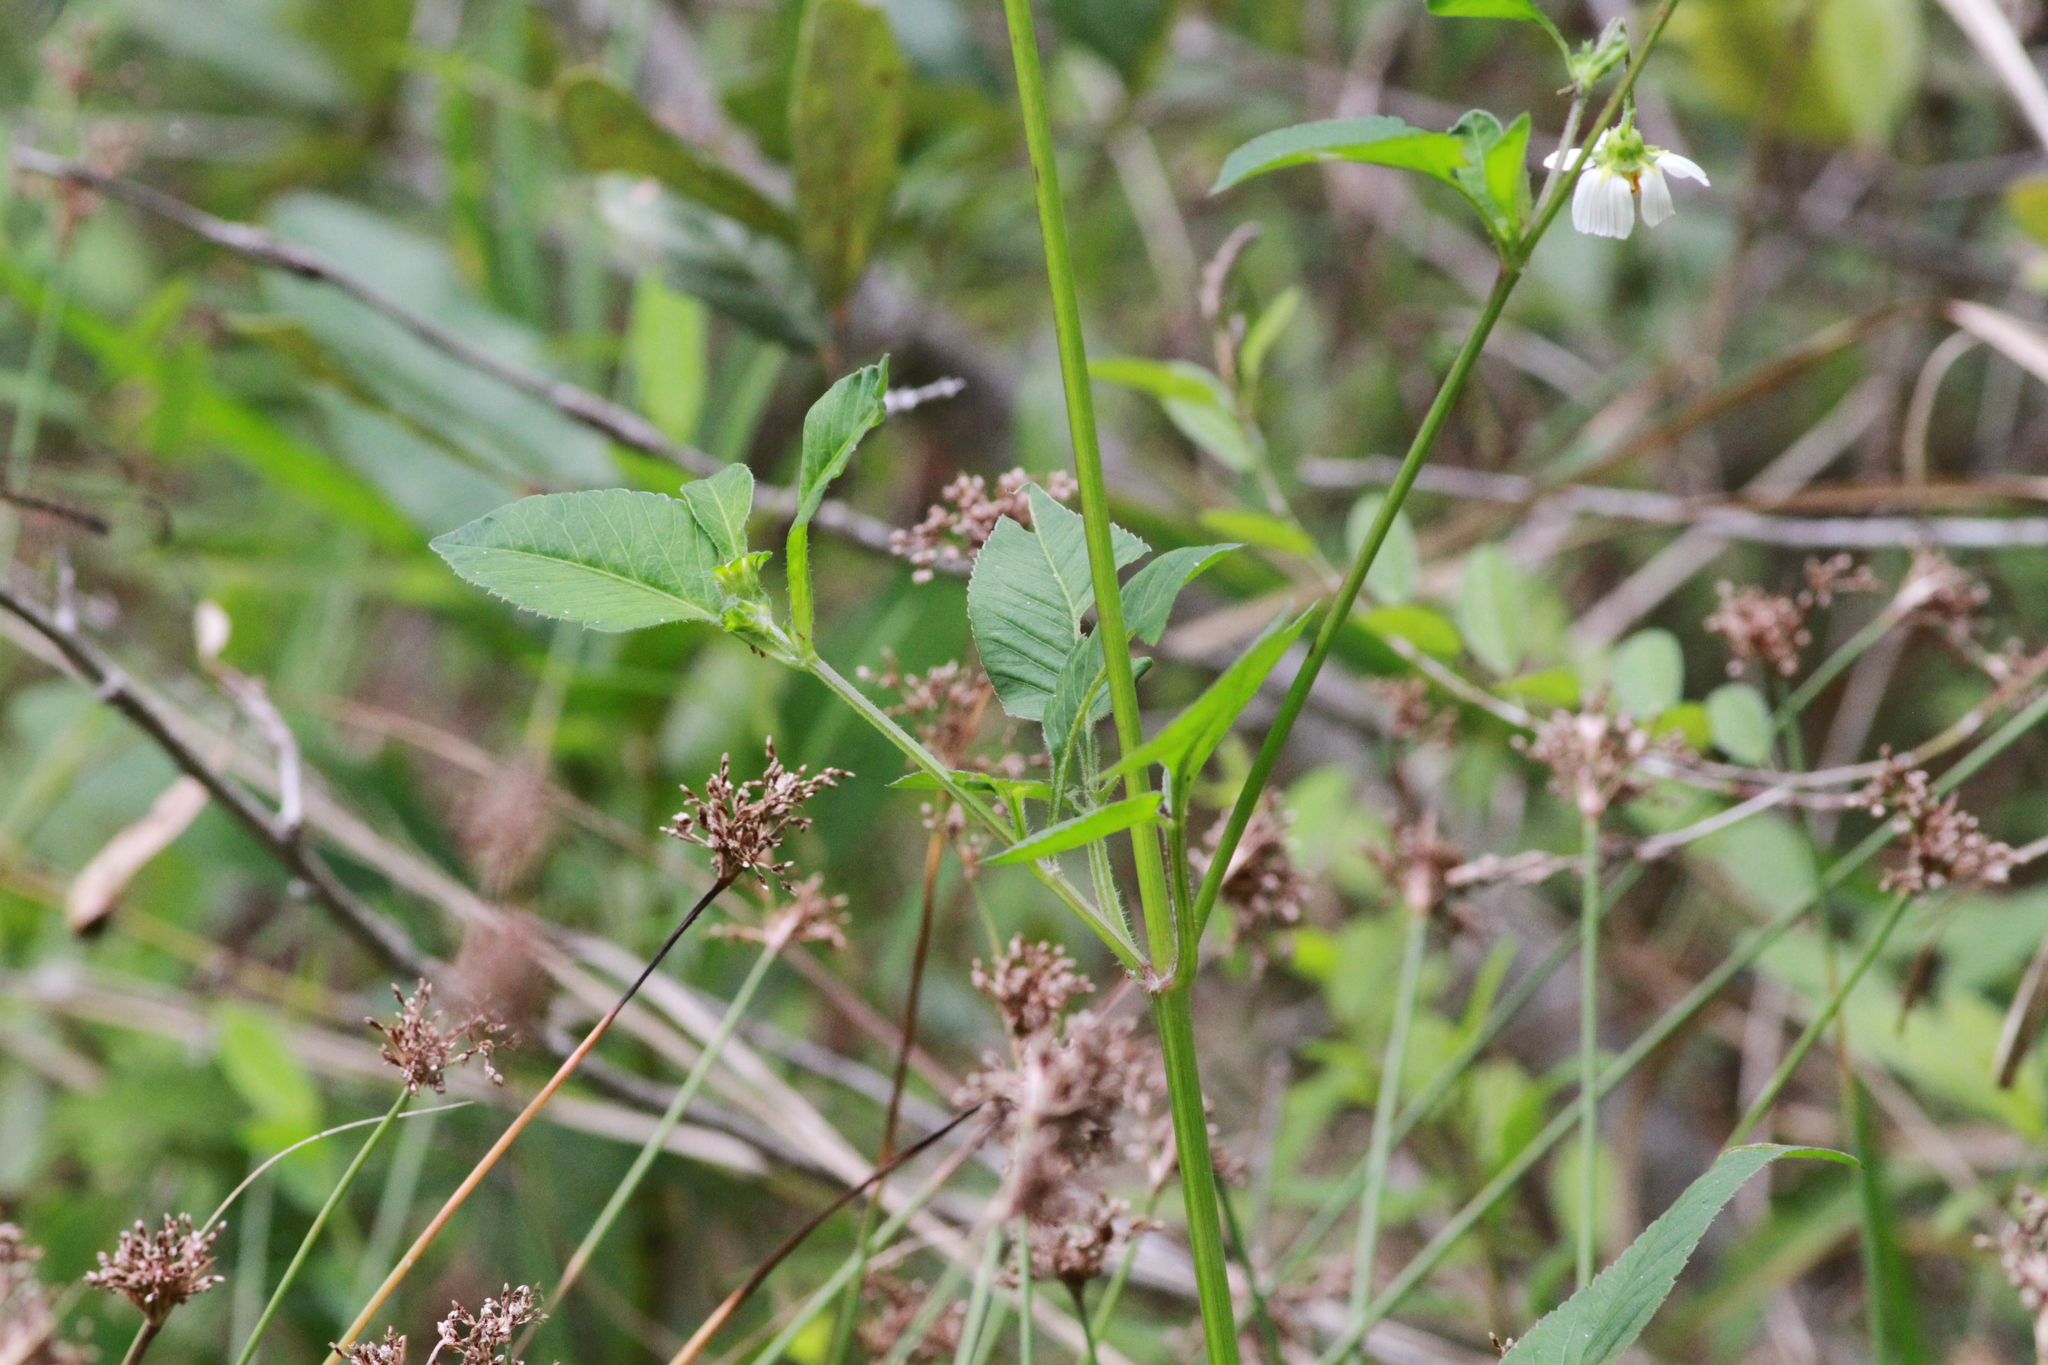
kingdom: Plantae
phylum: Tracheophyta
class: Magnoliopsida
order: Asterales
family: Asteraceae
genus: Bidens
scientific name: Bidens alba
